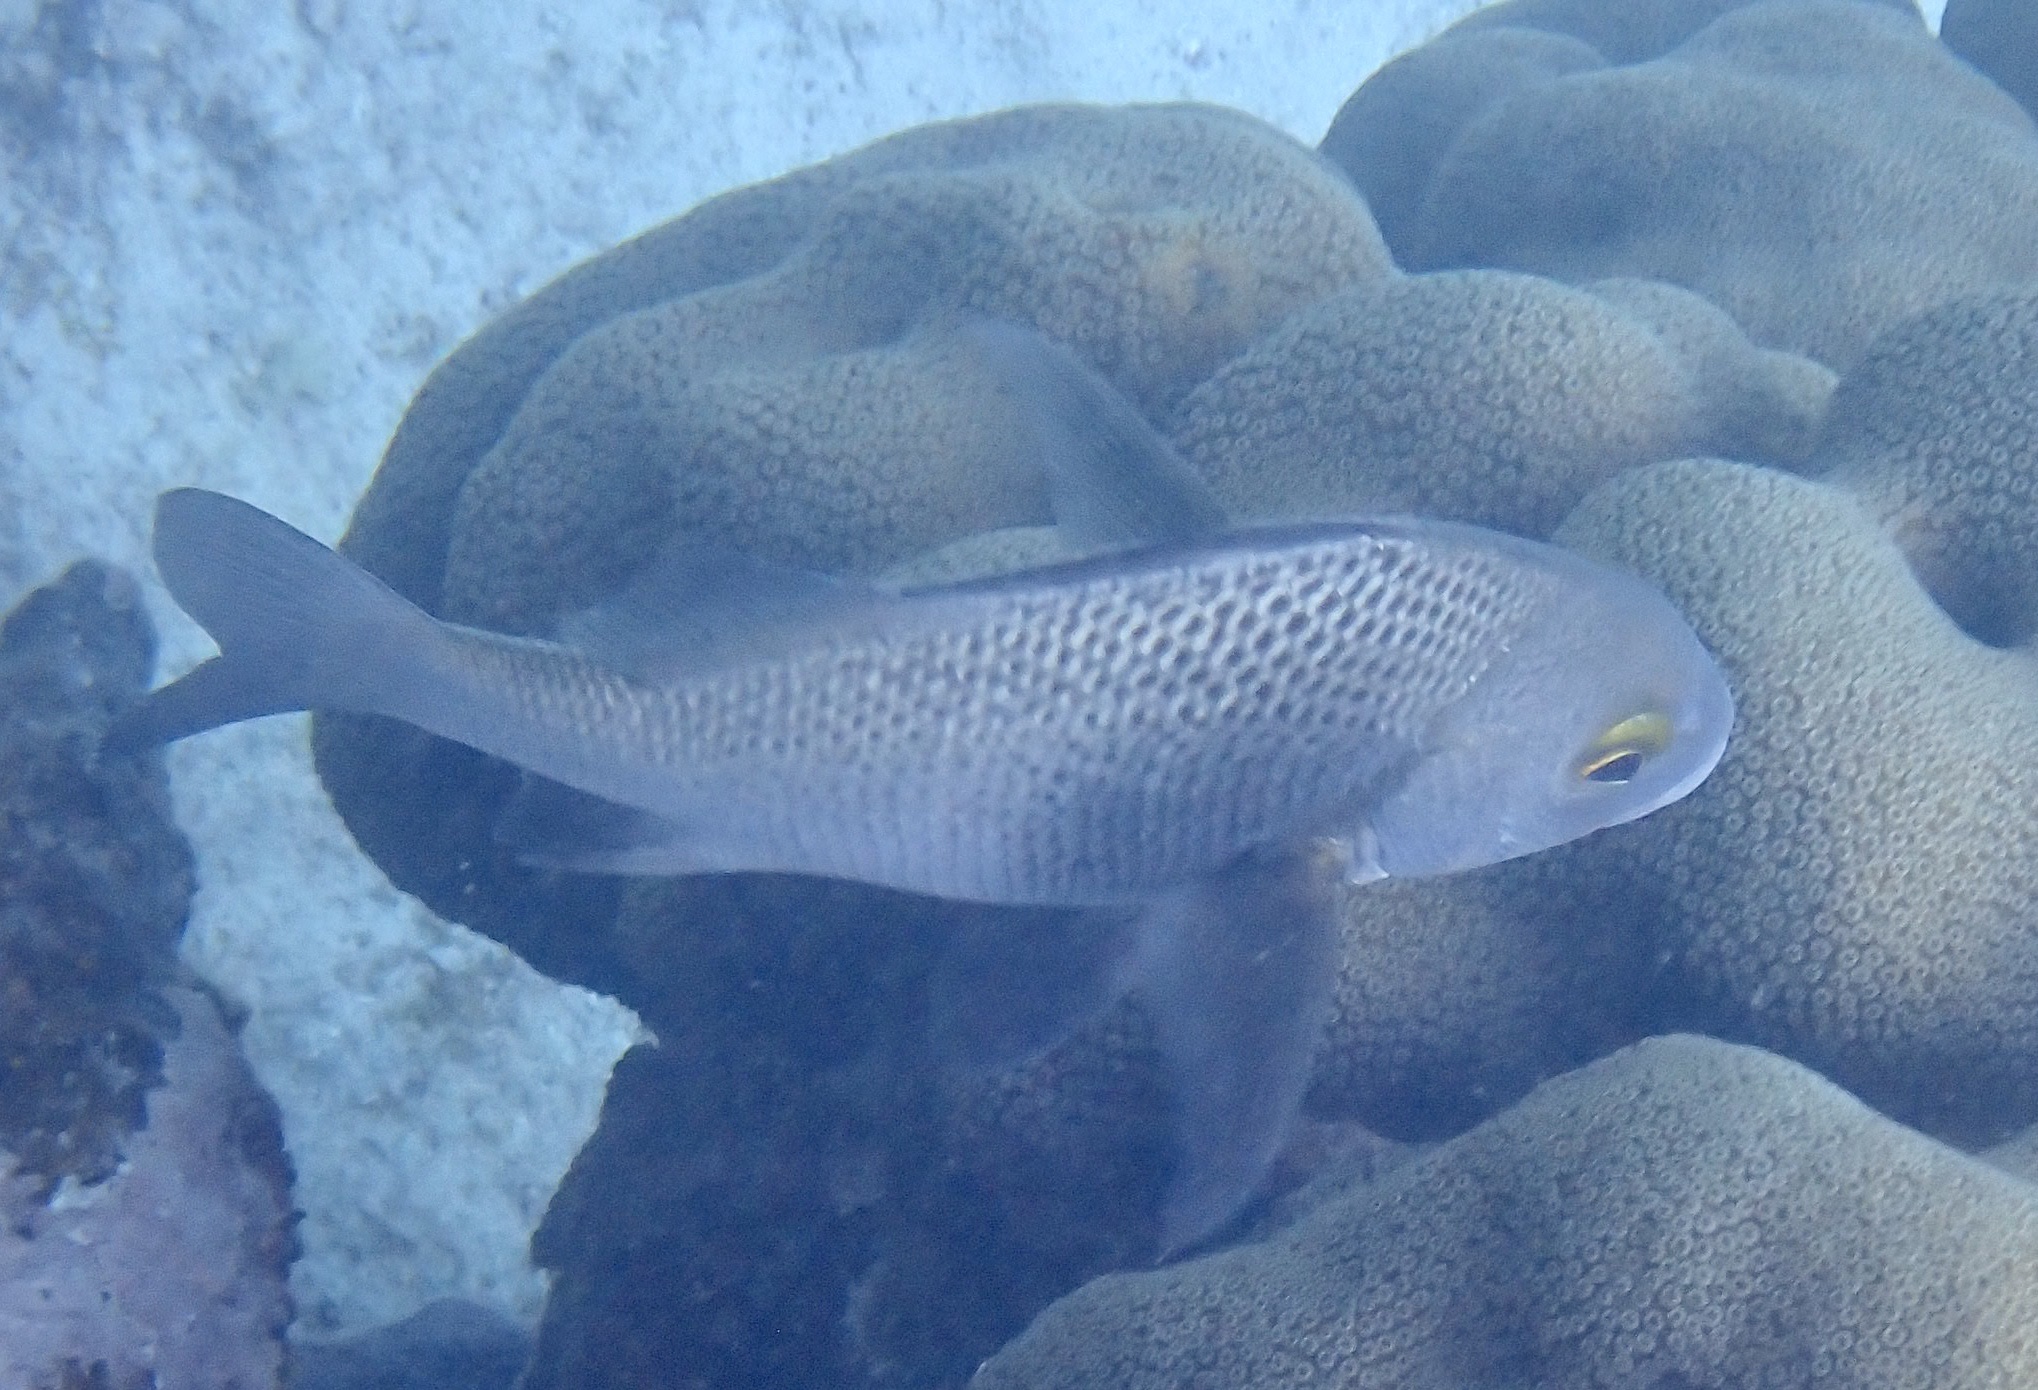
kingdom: Animalia
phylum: Chordata
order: Perciformes
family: Haemulidae
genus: Anisotremus
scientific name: Anisotremus surinamensis
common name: Black margate
